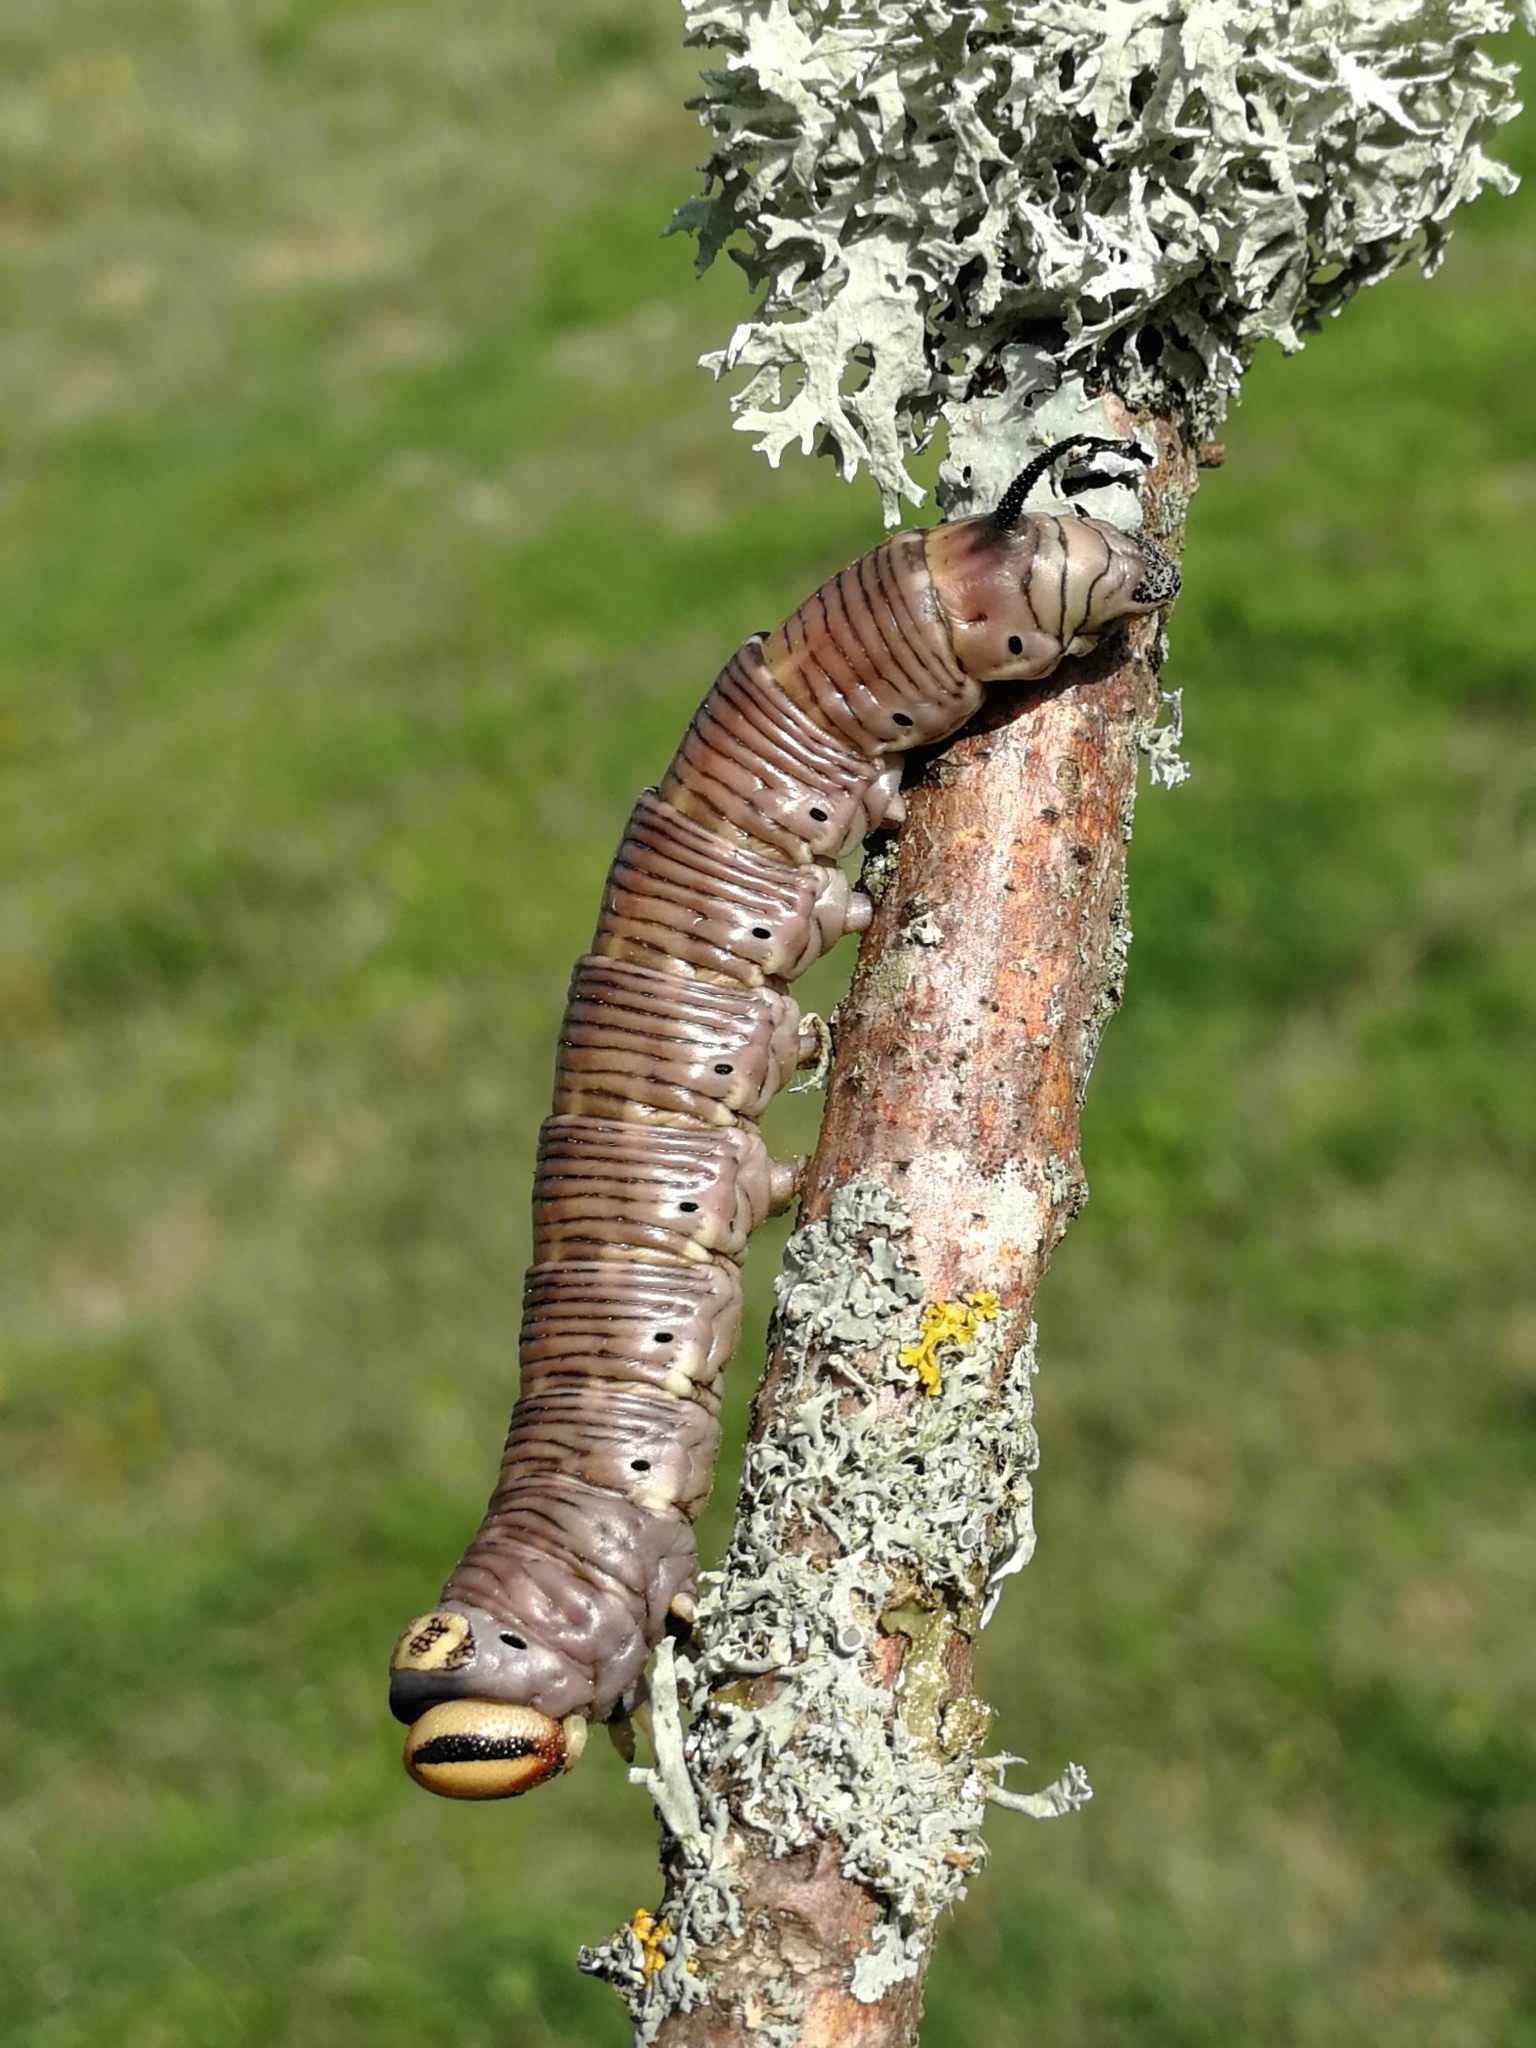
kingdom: Animalia
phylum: Arthropoda
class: Insecta
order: Lepidoptera
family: Sphingidae
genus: Sphinx
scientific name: Sphinx maurorum
